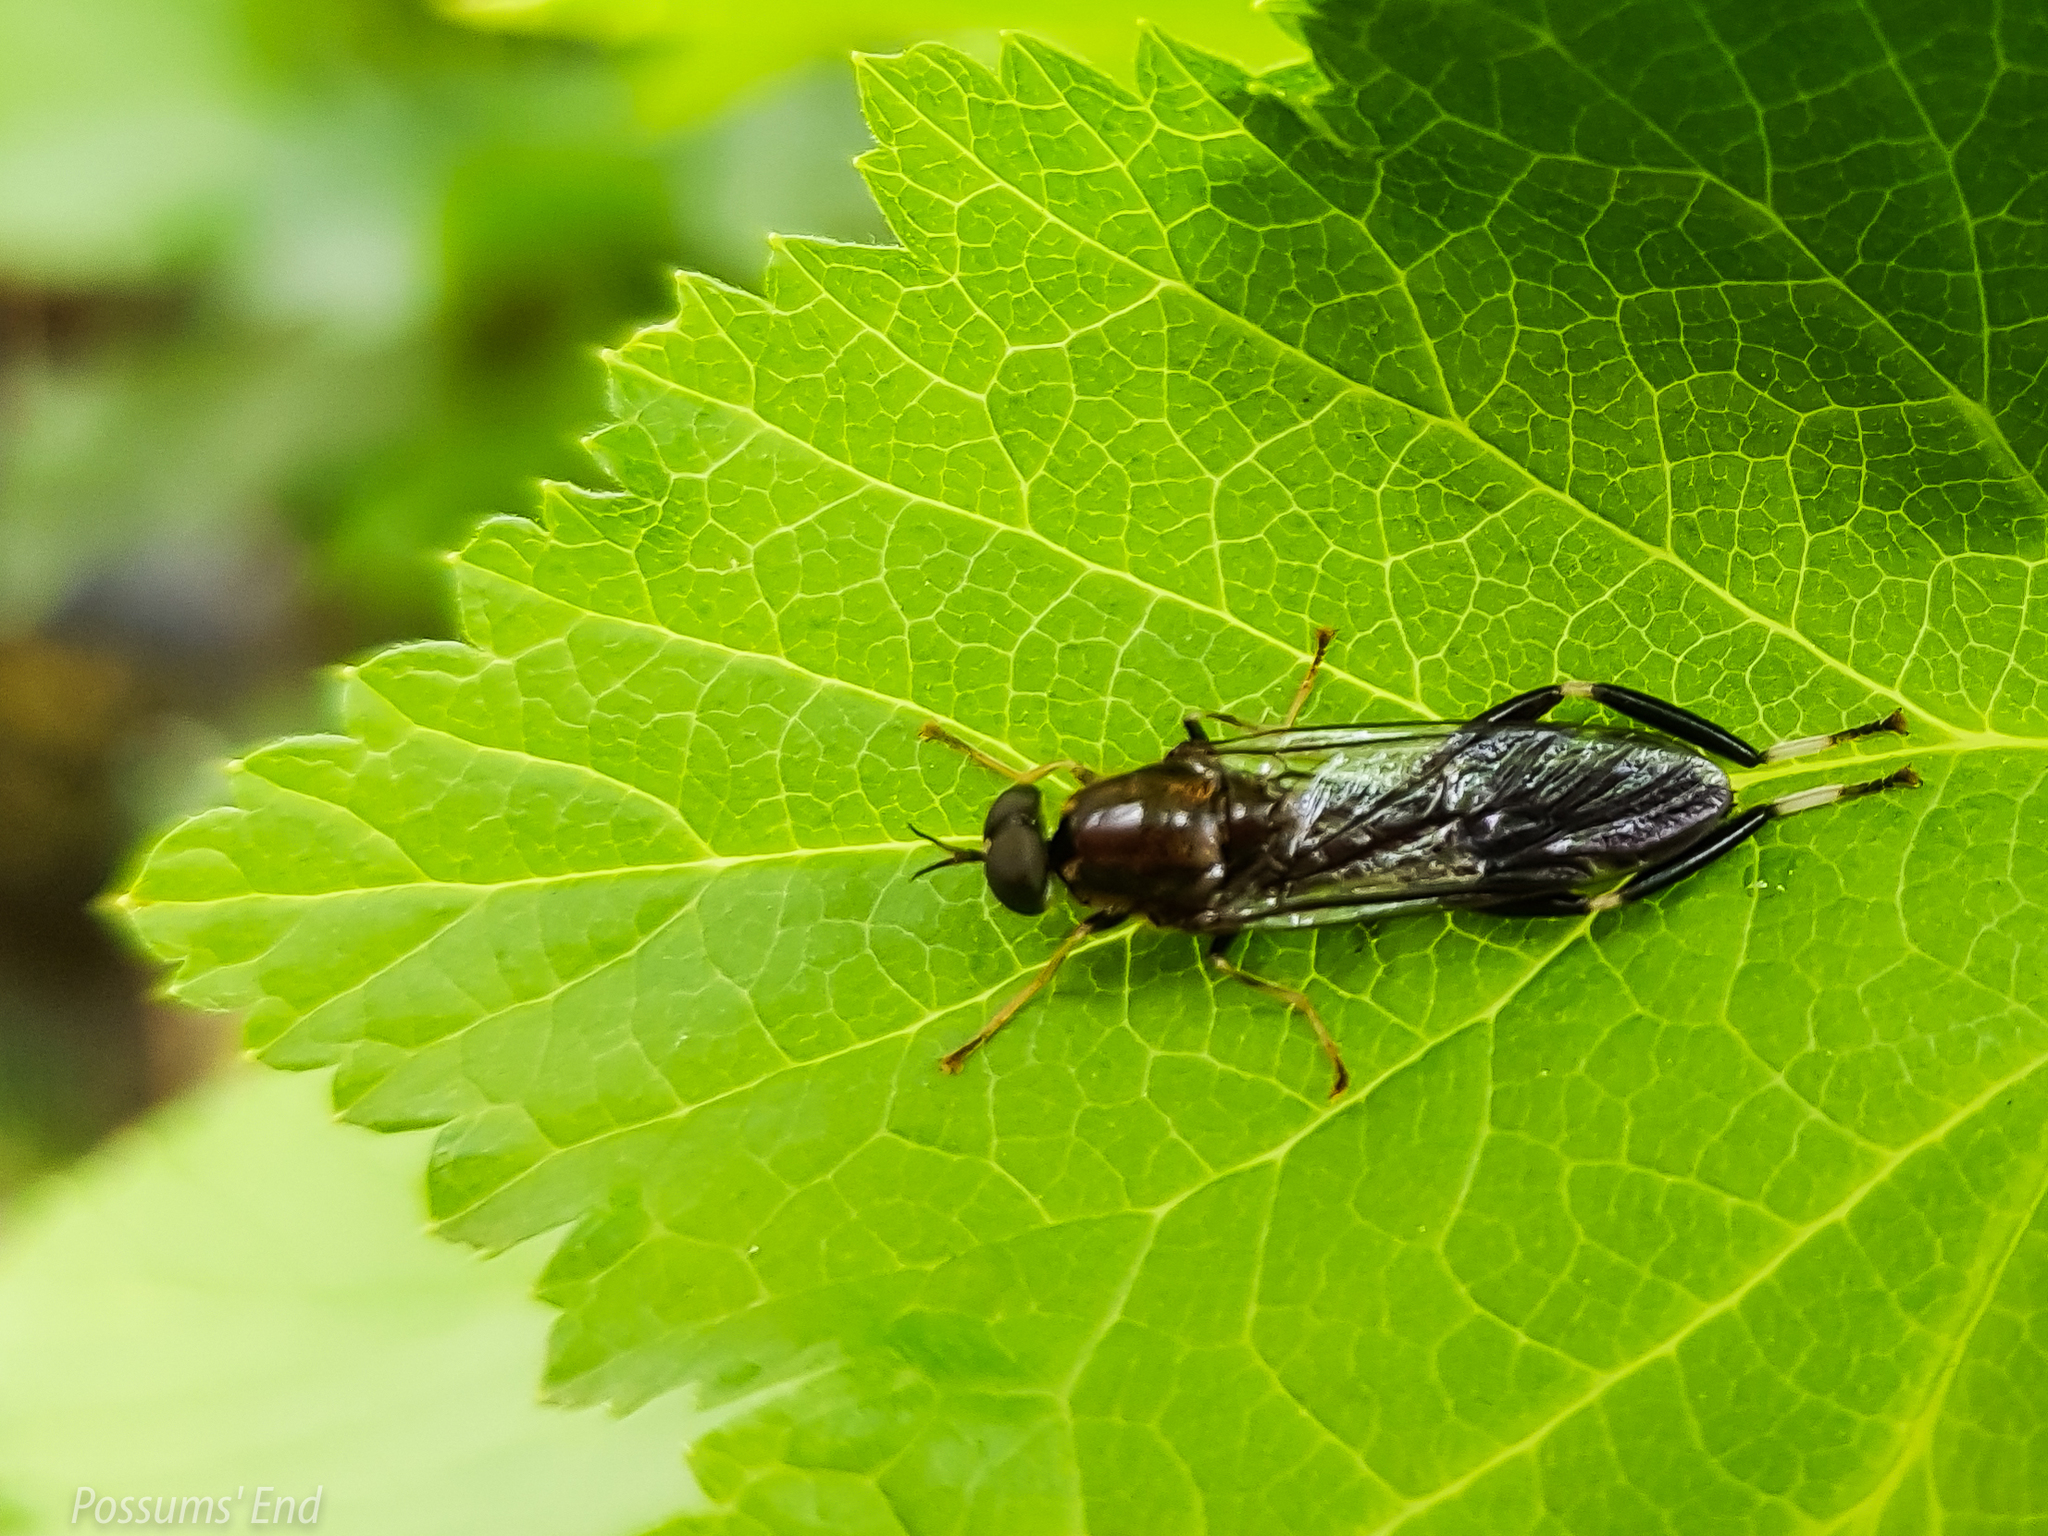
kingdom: Animalia
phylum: Arthropoda
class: Insecta
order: Diptera
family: Stratiomyidae
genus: Exaireta
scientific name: Exaireta spinigera
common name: Blue soldier fly
